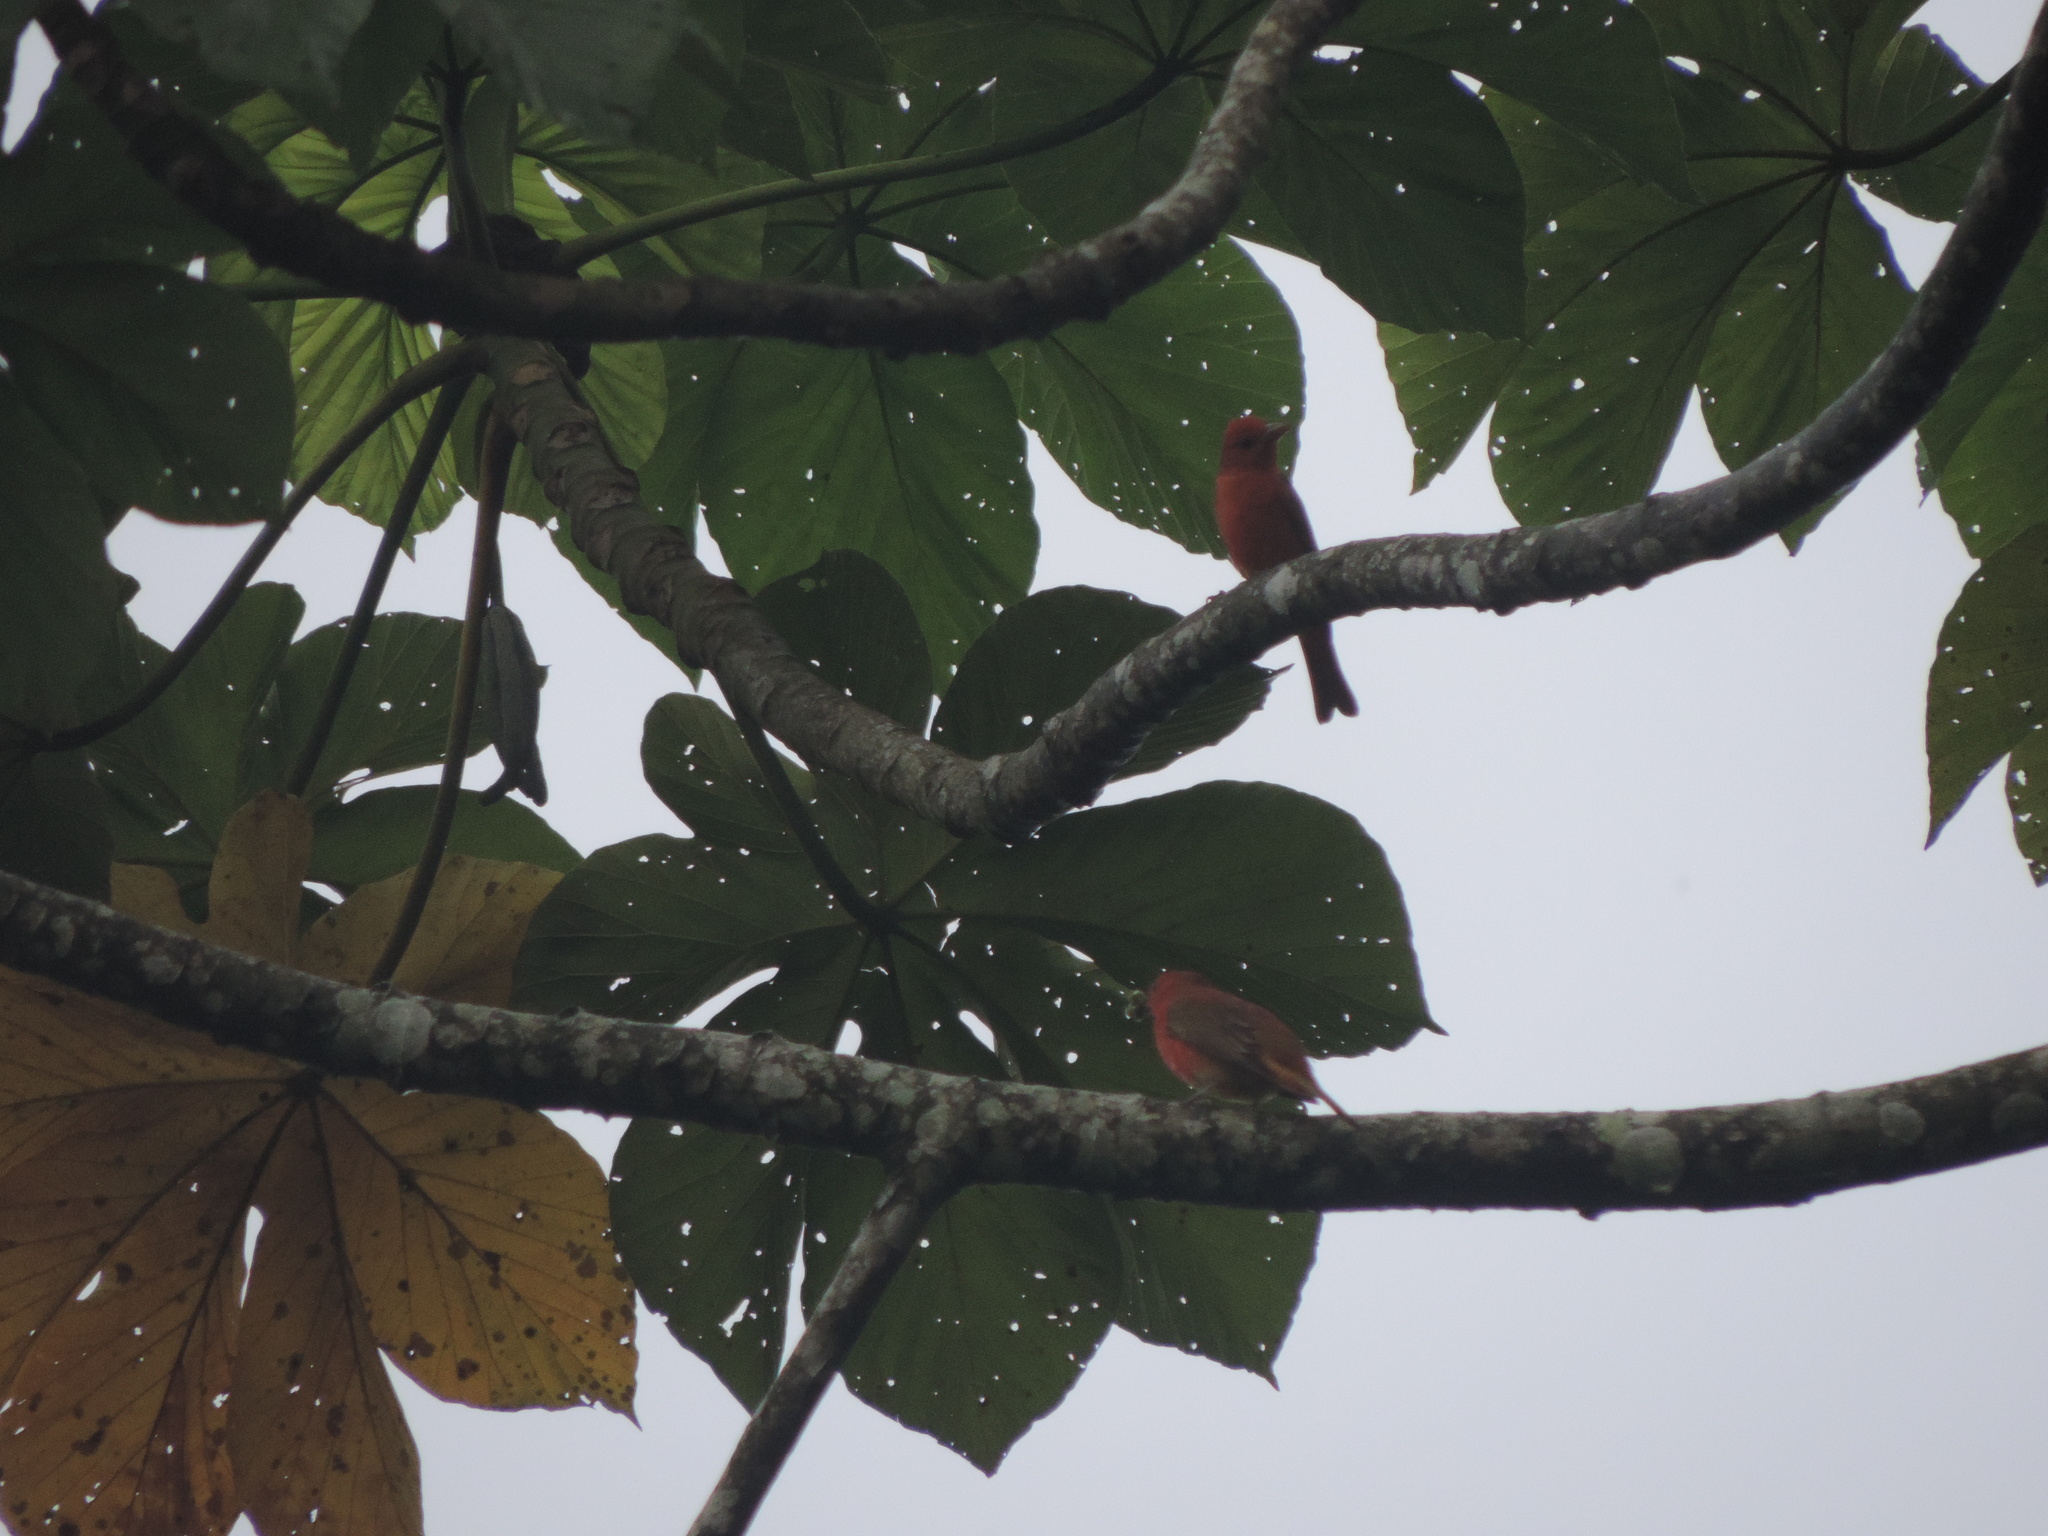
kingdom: Animalia
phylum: Chordata
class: Aves
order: Passeriformes
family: Cardinalidae
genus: Piranga
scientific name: Piranga rubra
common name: Summer tanager
